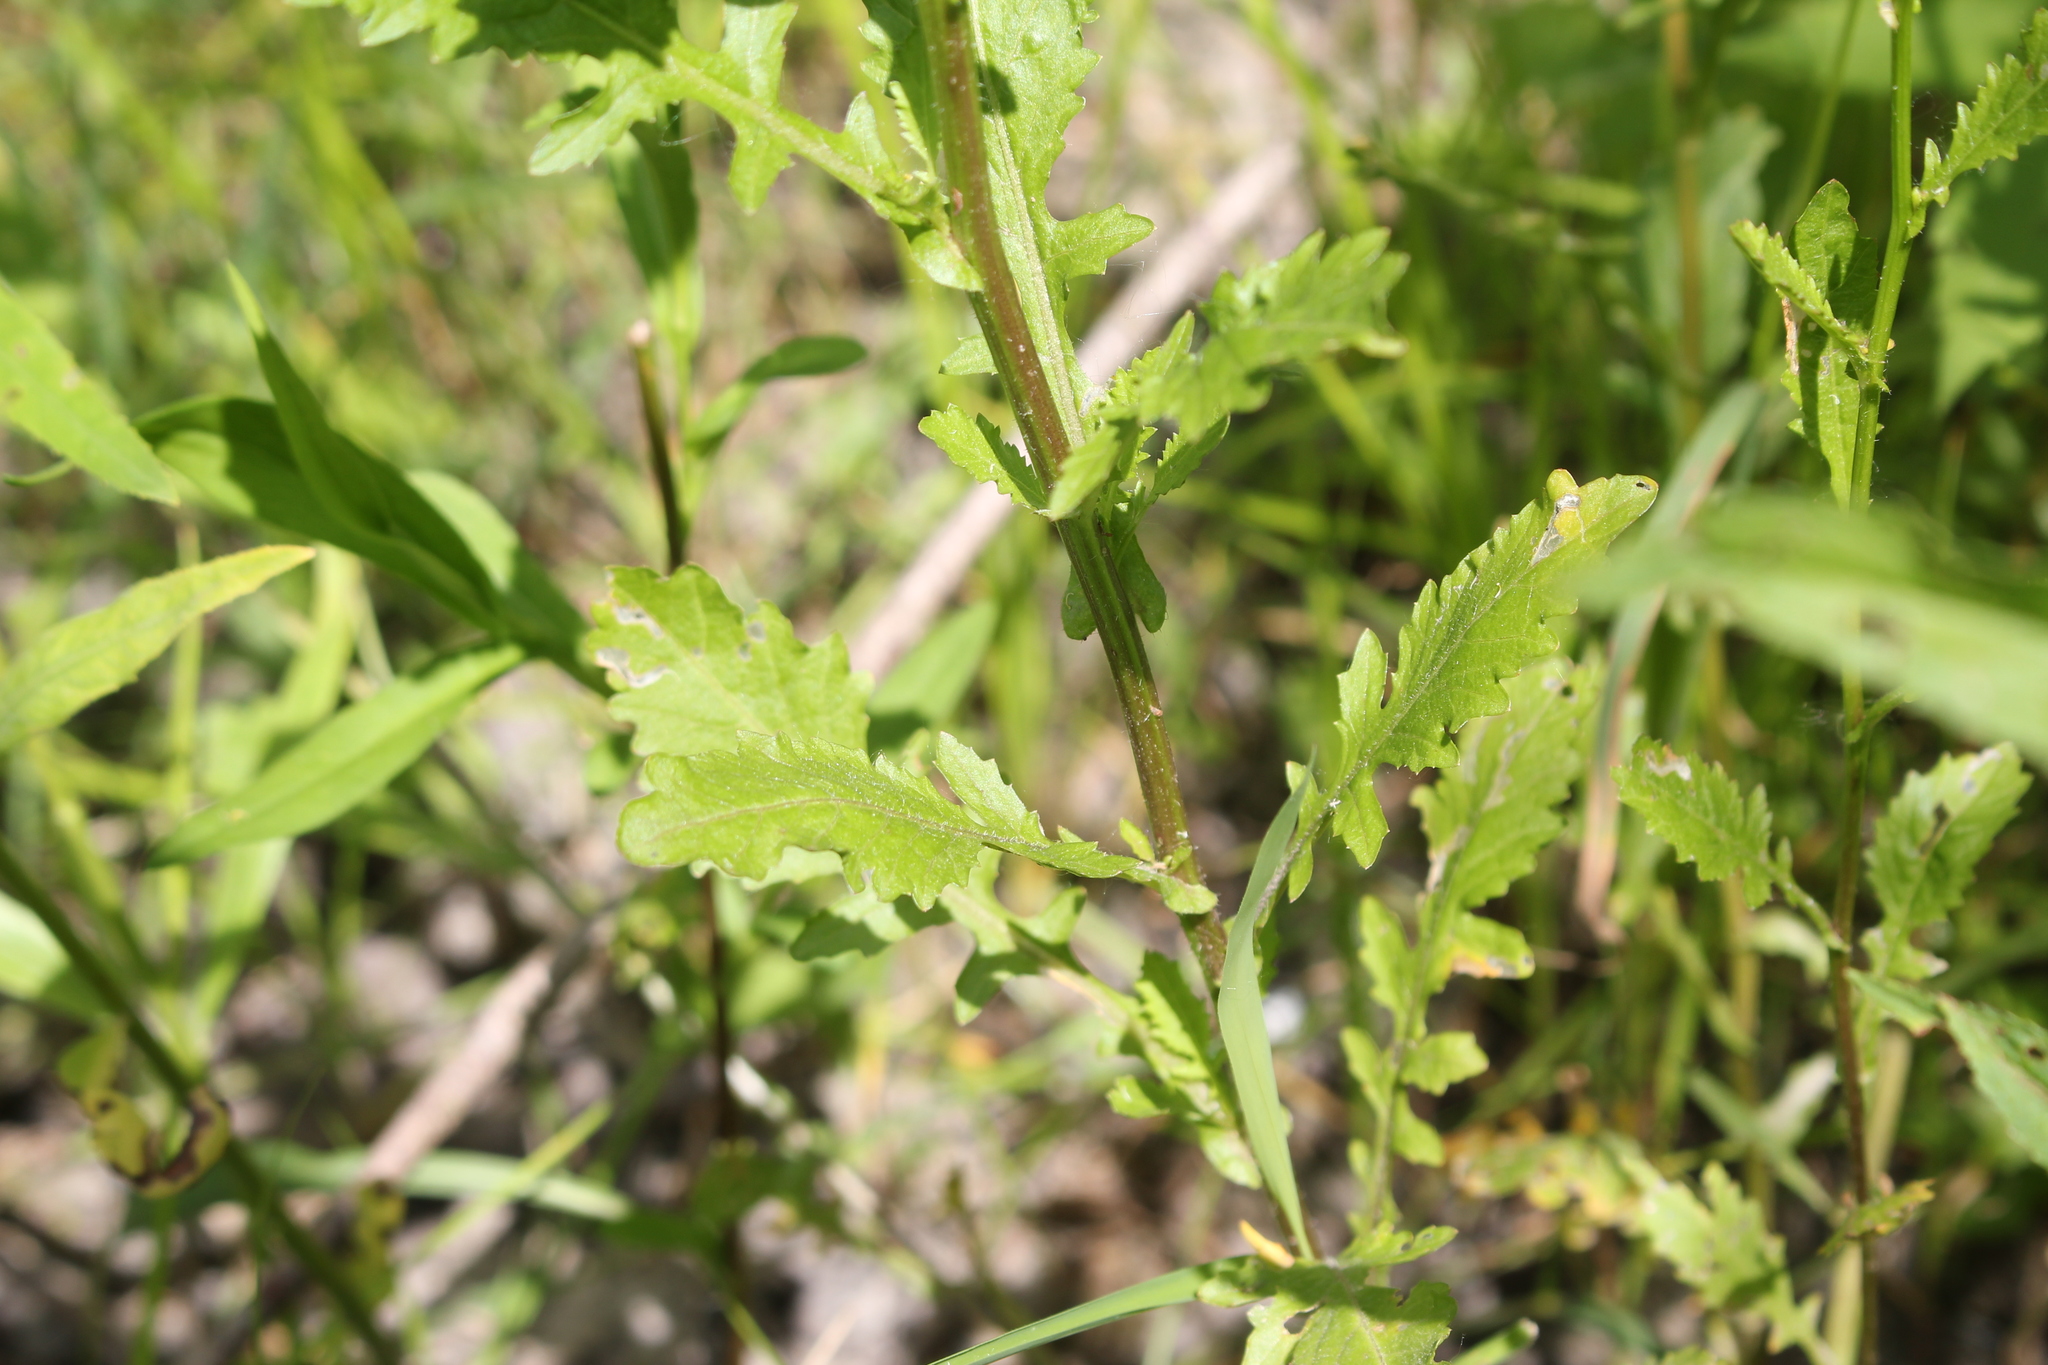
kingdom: Plantae
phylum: Tracheophyta
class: Magnoliopsida
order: Brassicales
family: Brassicaceae
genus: Rorippa
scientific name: Rorippa palustris
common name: Marsh yellow-cress
